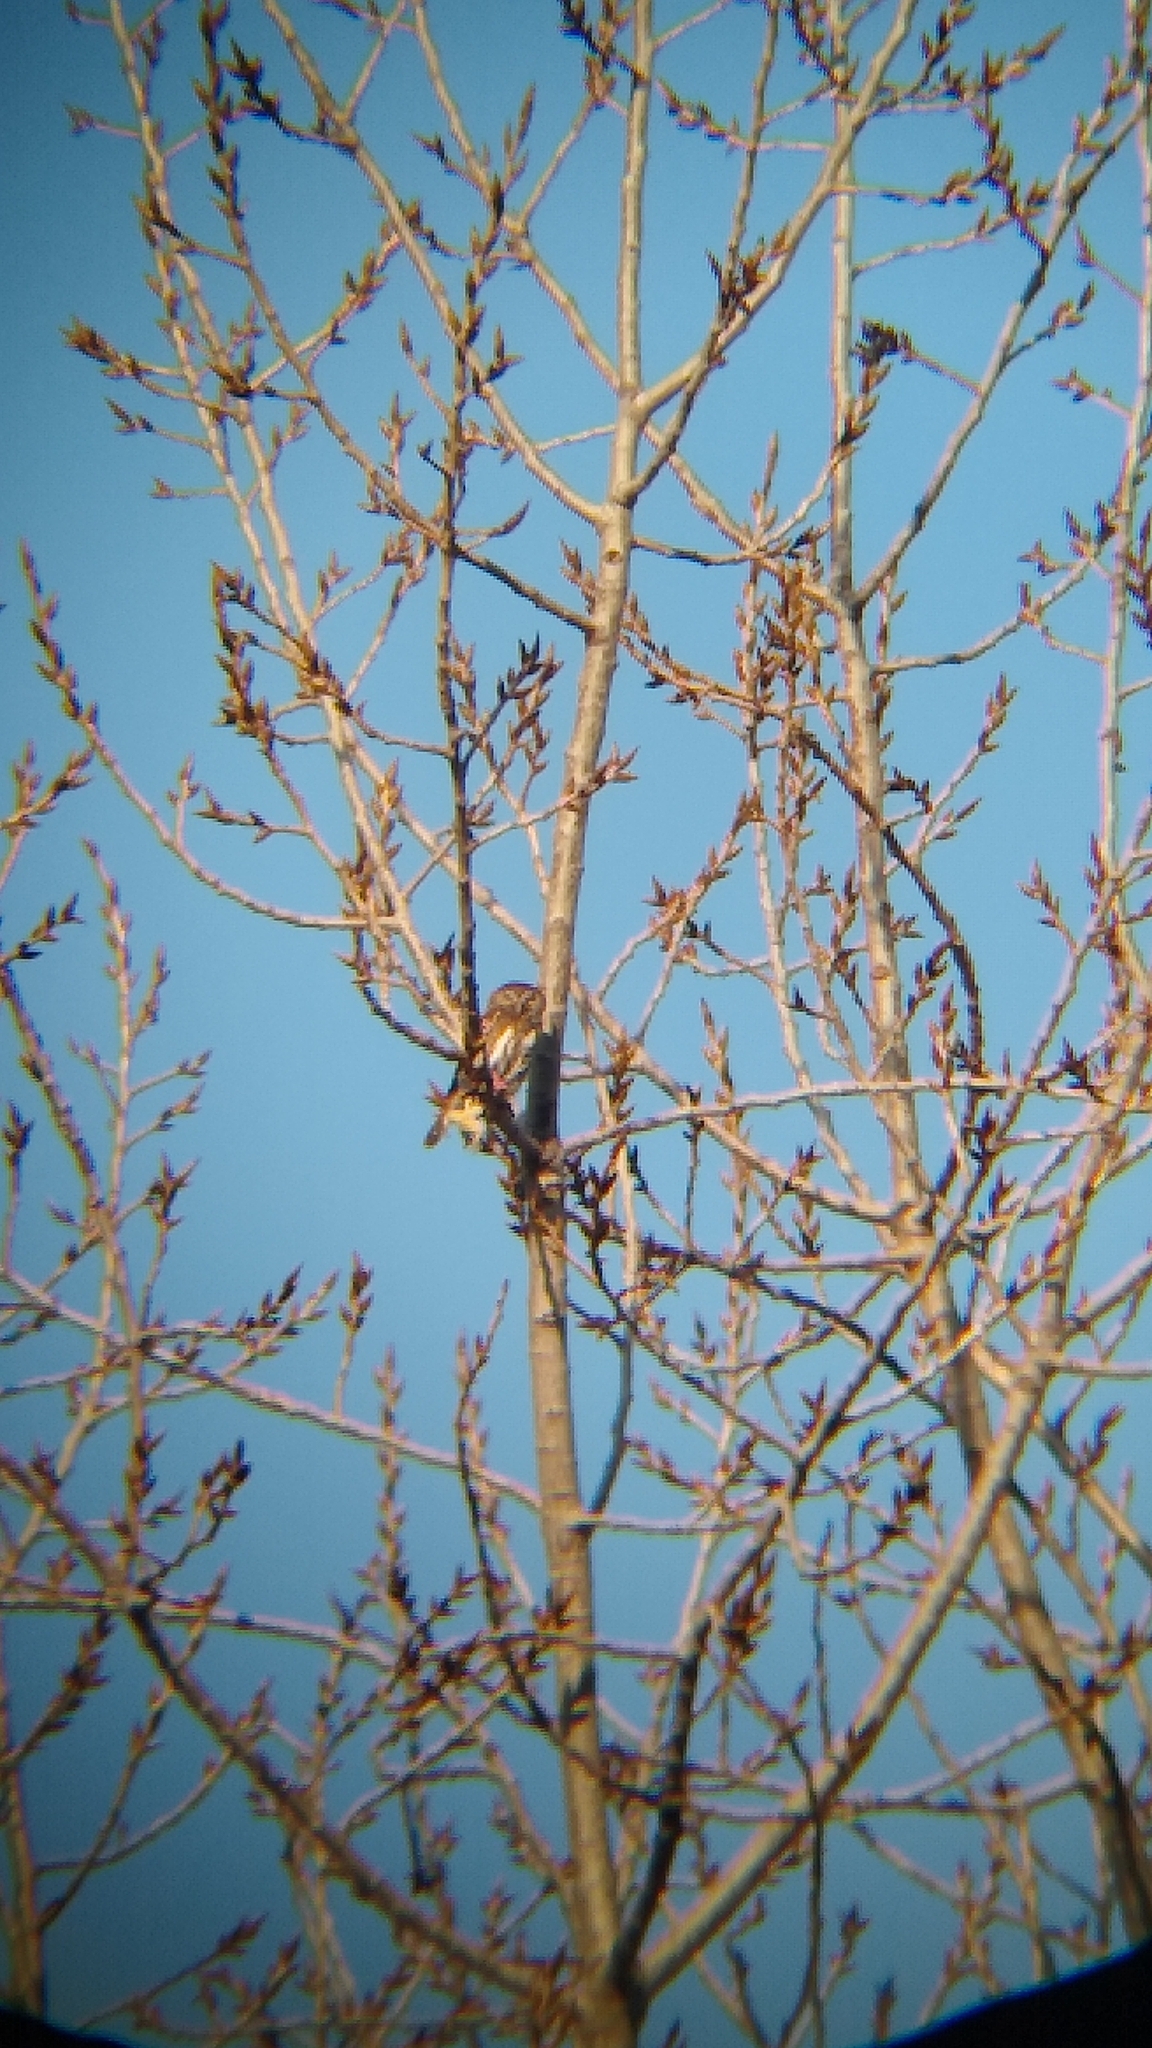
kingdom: Animalia
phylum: Chordata
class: Aves
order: Strigiformes
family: Strigidae
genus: Glaucidium
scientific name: Glaucidium brasilianum
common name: Ferruginous pygmy-owl
